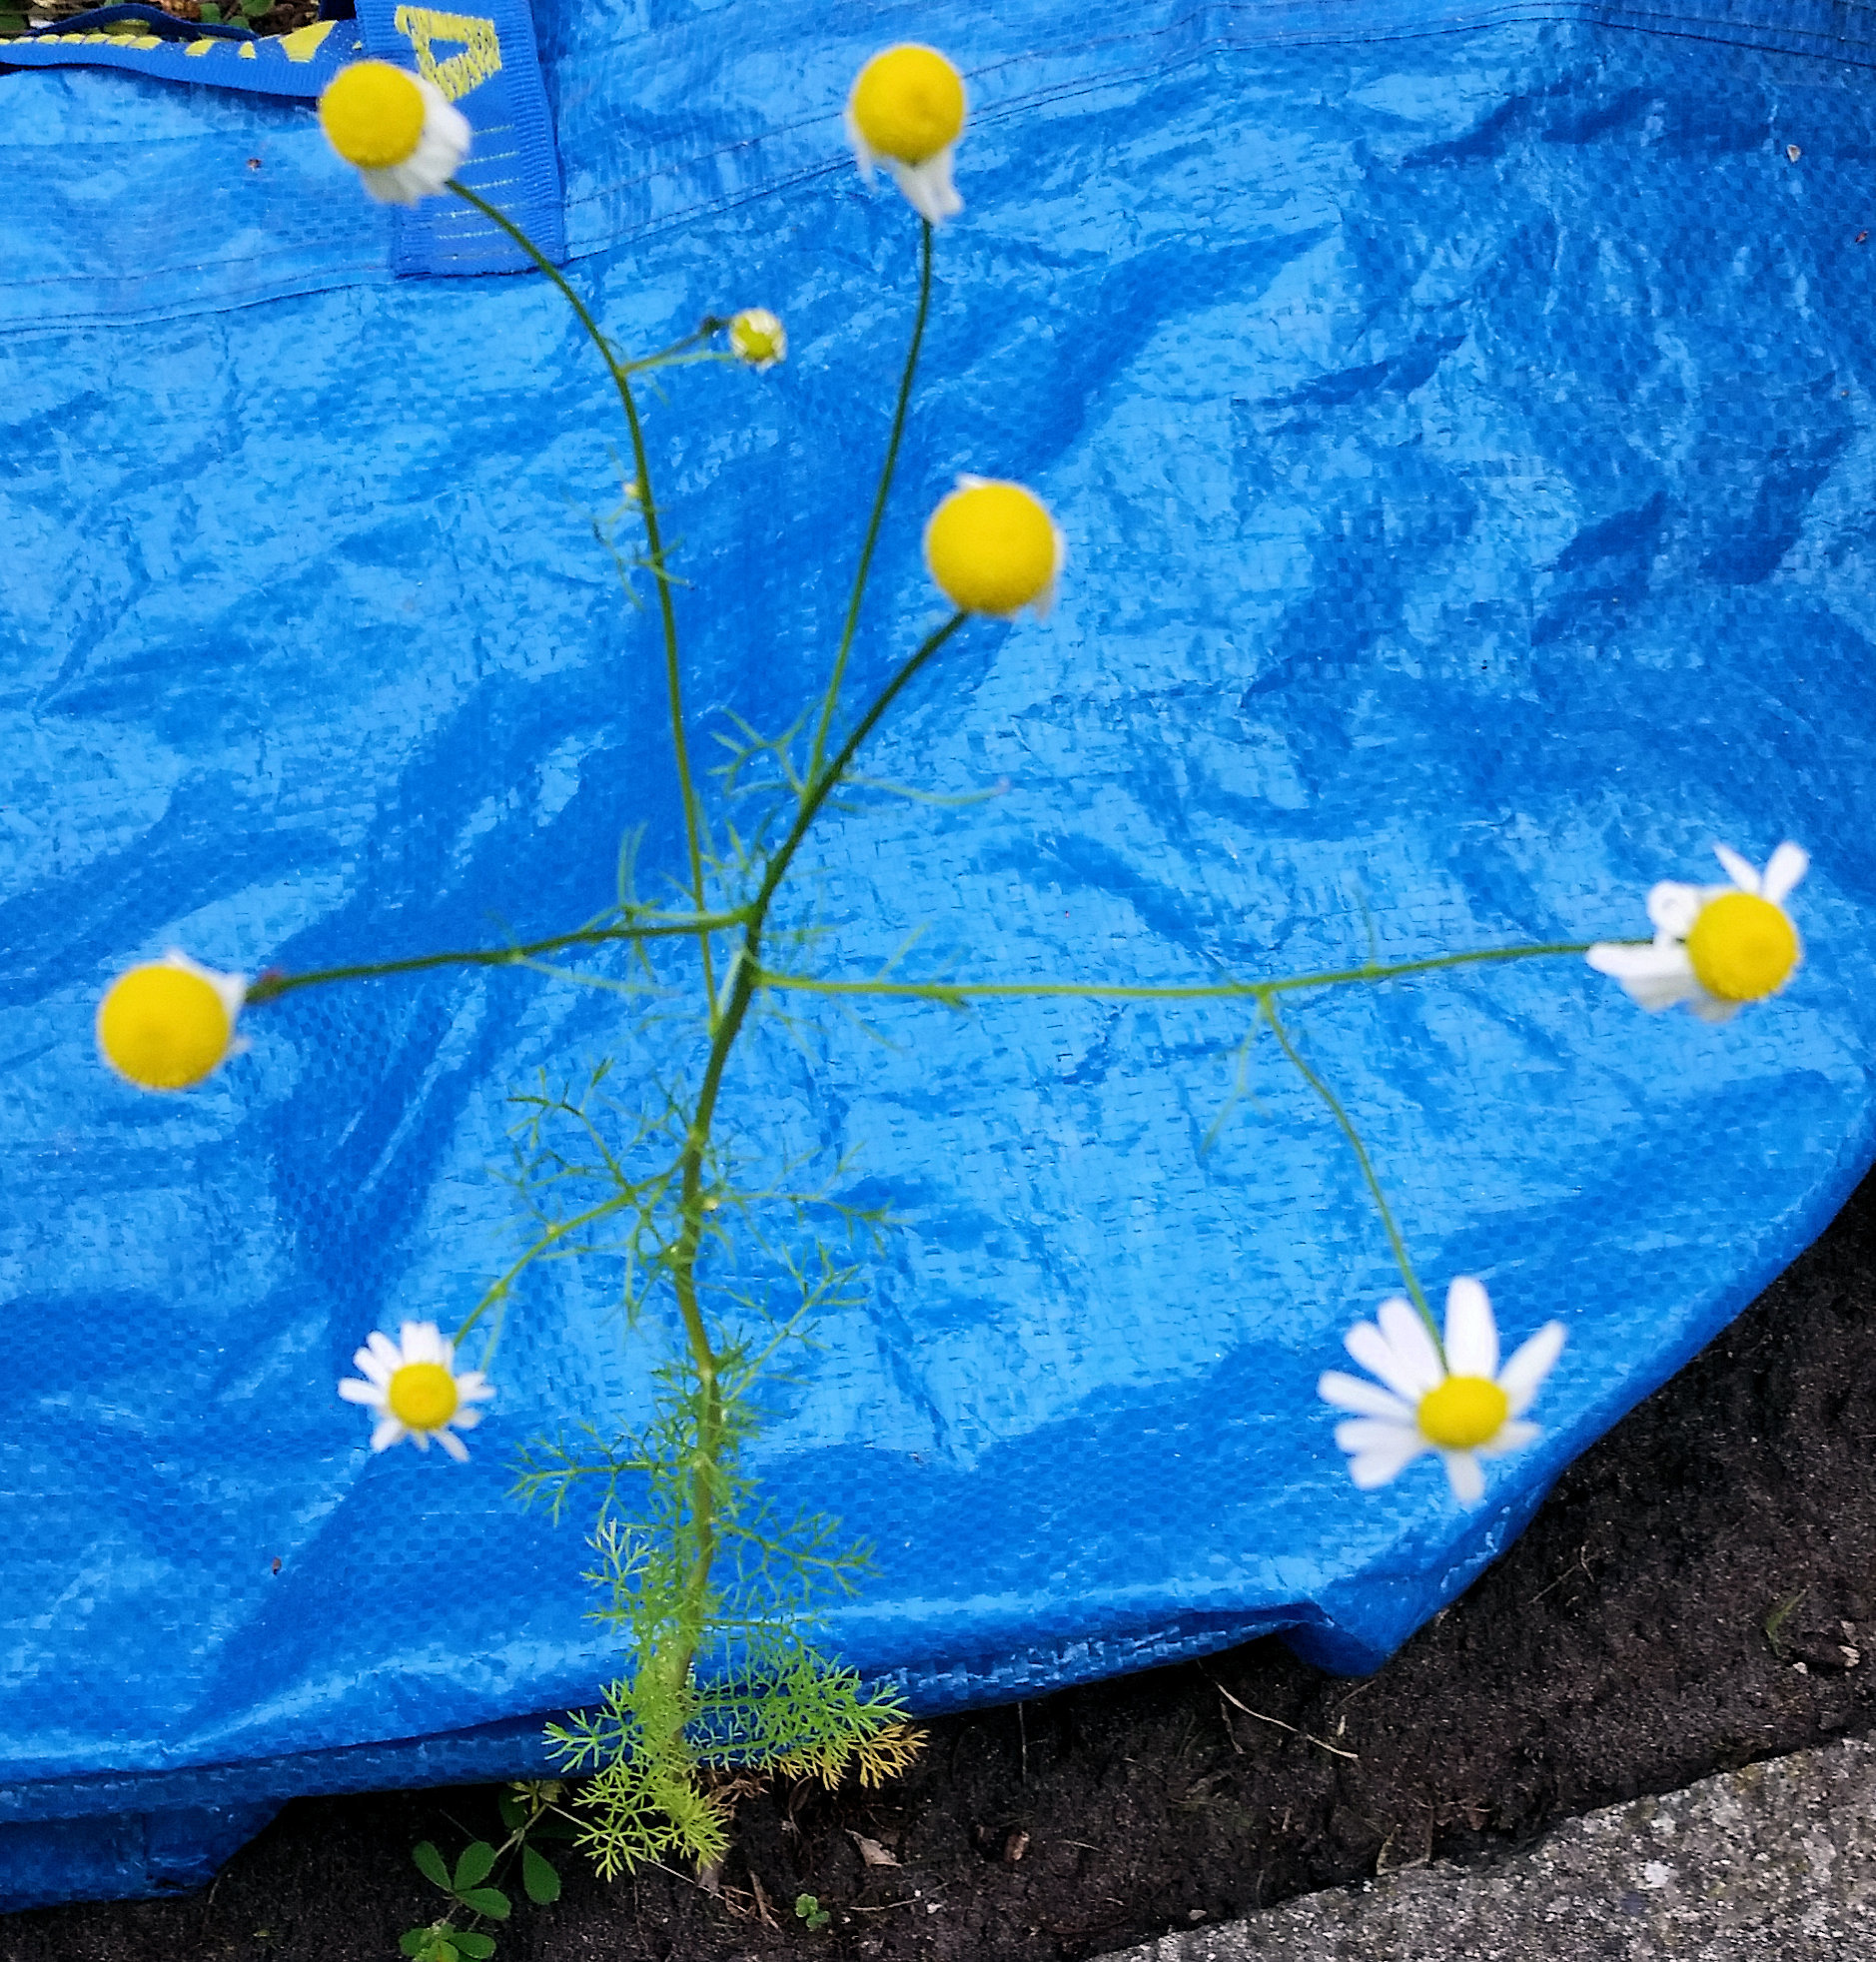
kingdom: Plantae
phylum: Tracheophyta
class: Magnoliopsida
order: Asterales
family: Asteraceae
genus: Matricaria
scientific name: Matricaria chamomilla
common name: Scented mayweed
